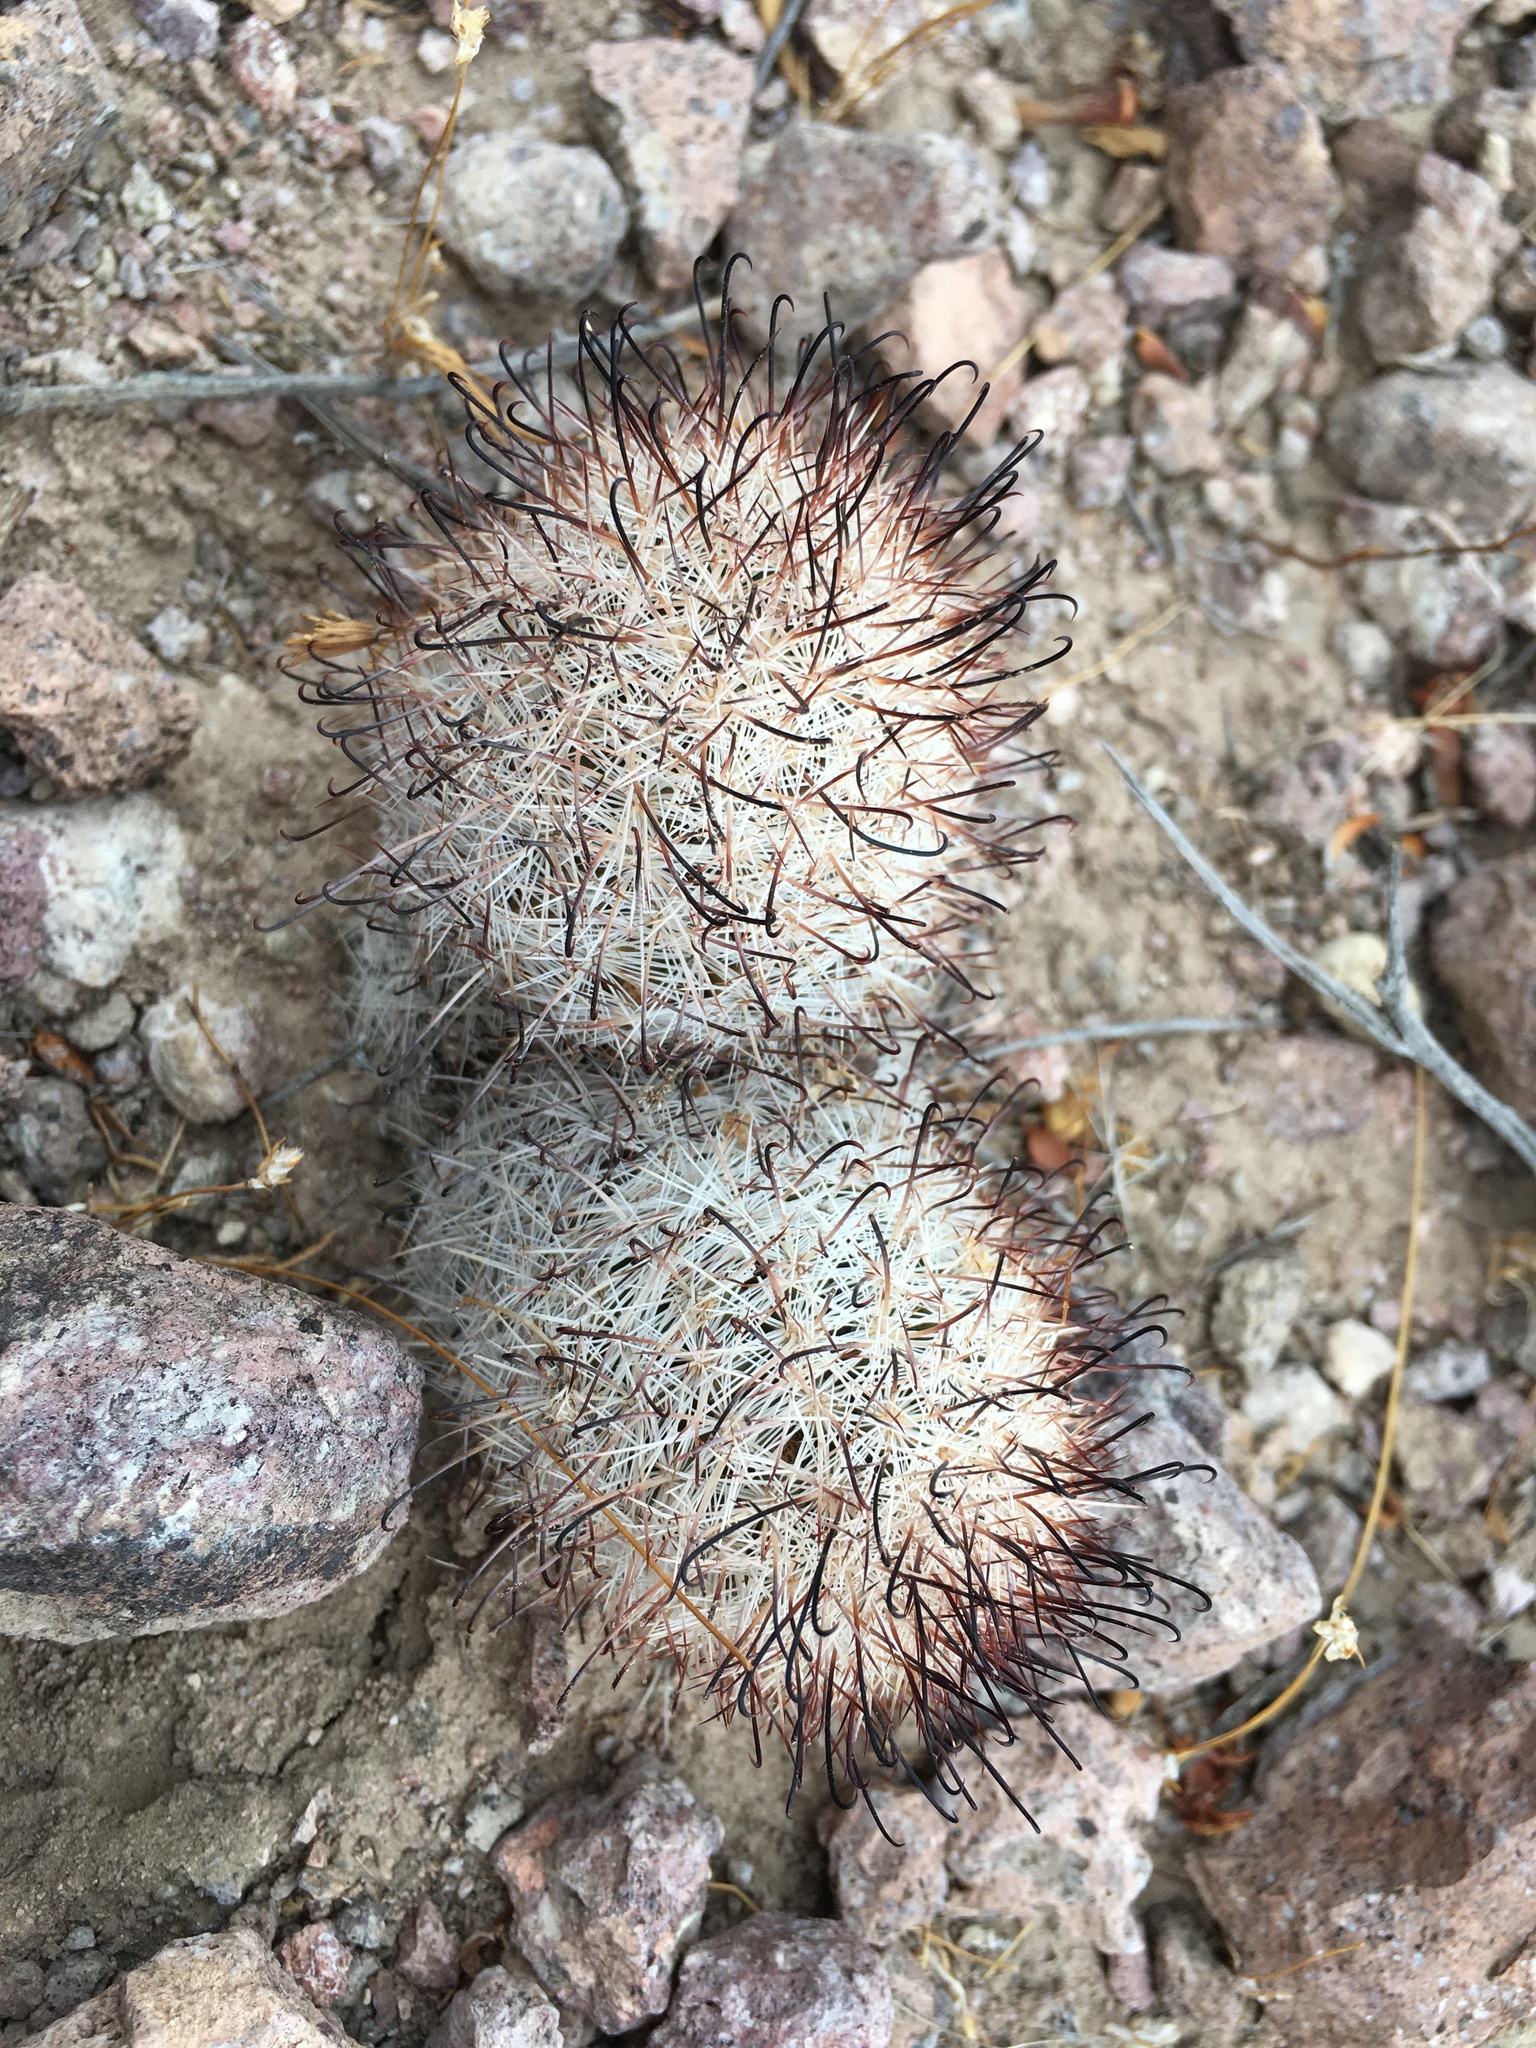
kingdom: Plantae
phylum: Tracheophyta
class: Magnoliopsida
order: Caryophyllales
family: Cactaceae
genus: Cochemiea
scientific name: Cochemiea tetrancistra
